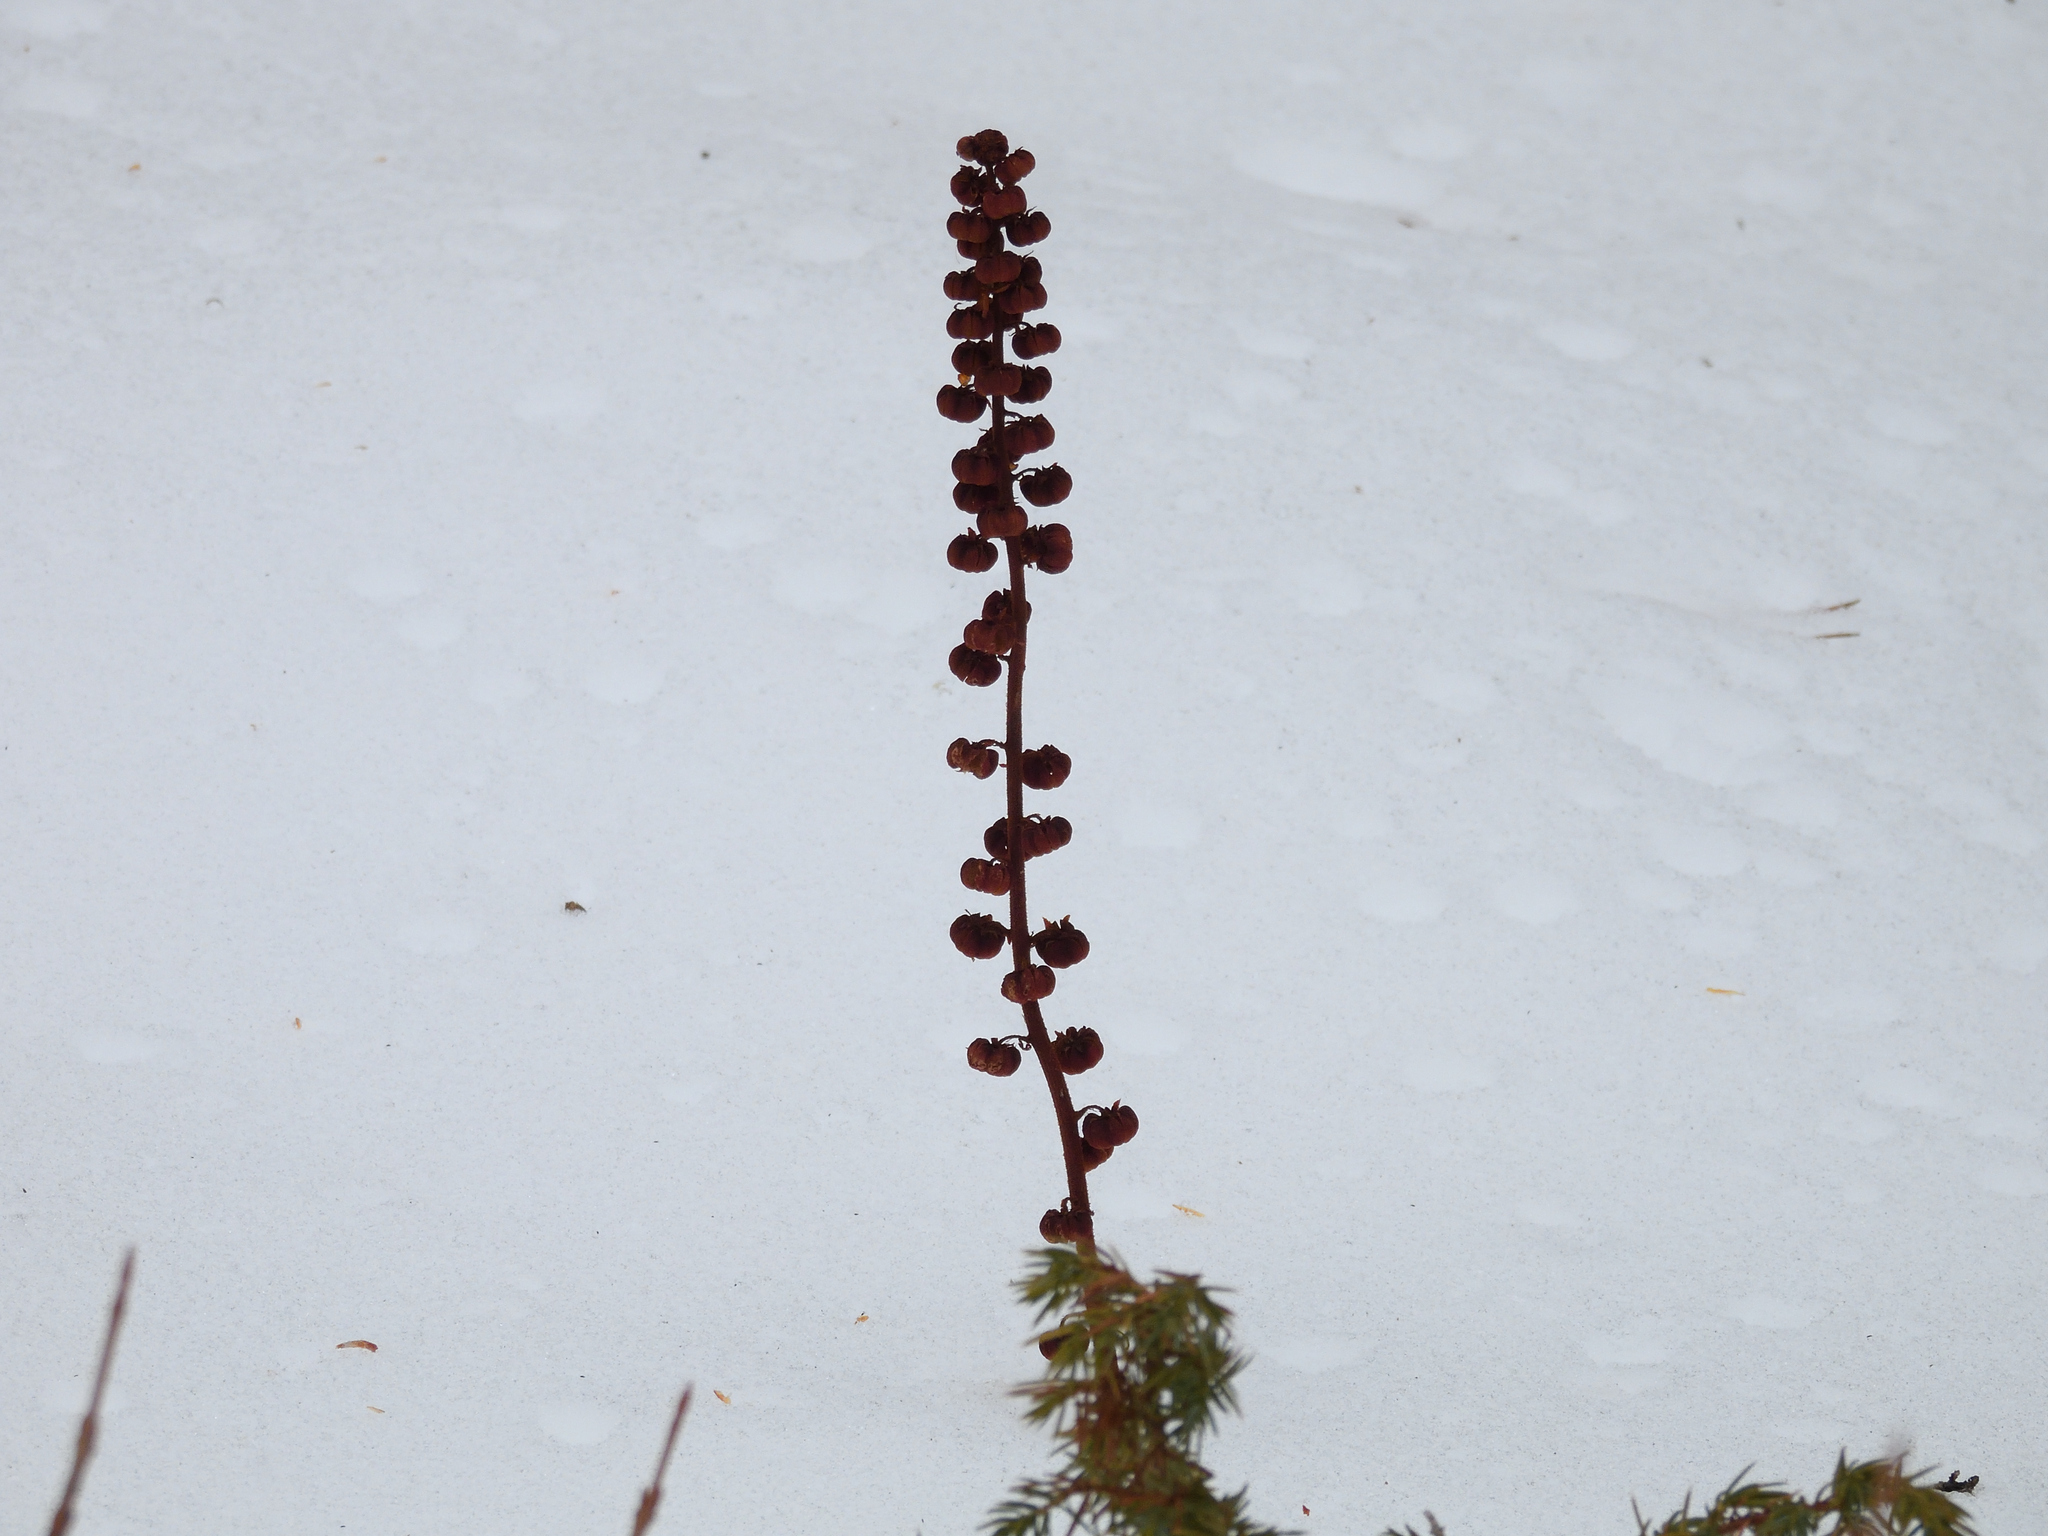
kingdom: Plantae
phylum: Tracheophyta
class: Magnoliopsida
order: Ericales
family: Ericaceae
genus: Pterospora
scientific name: Pterospora andromedea
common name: Giant bird's-nest
